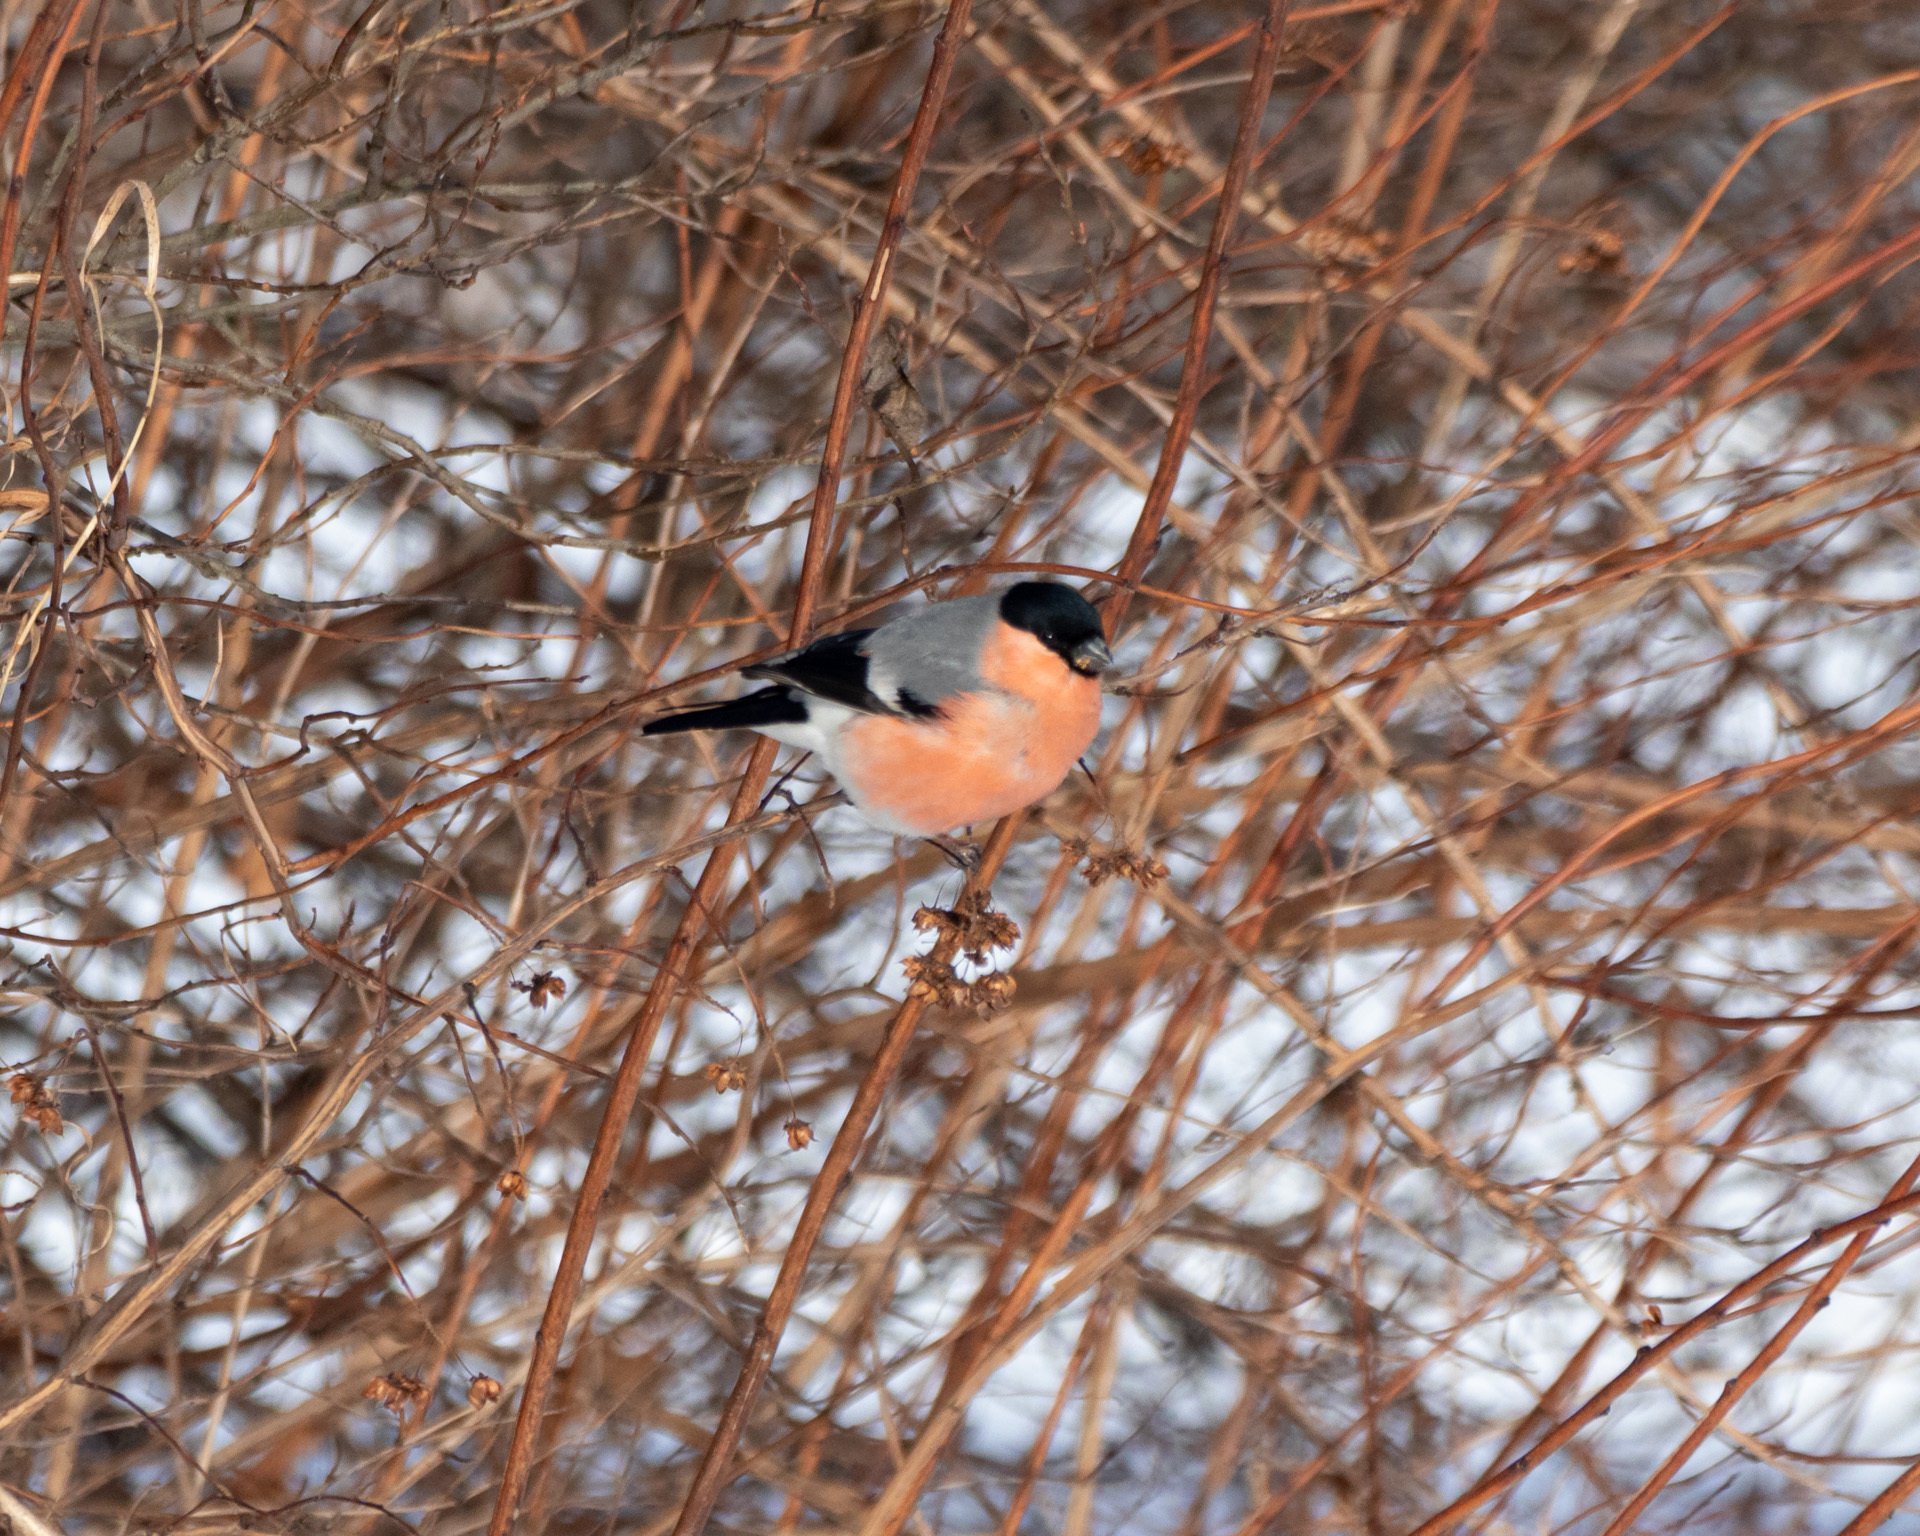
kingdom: Animalia
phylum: Chordata
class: Aves
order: Passeriformes
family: Fringillidae
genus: Pyrrhula
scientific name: Pyrrhula pyrrhula
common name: Eurasian bullfinch
